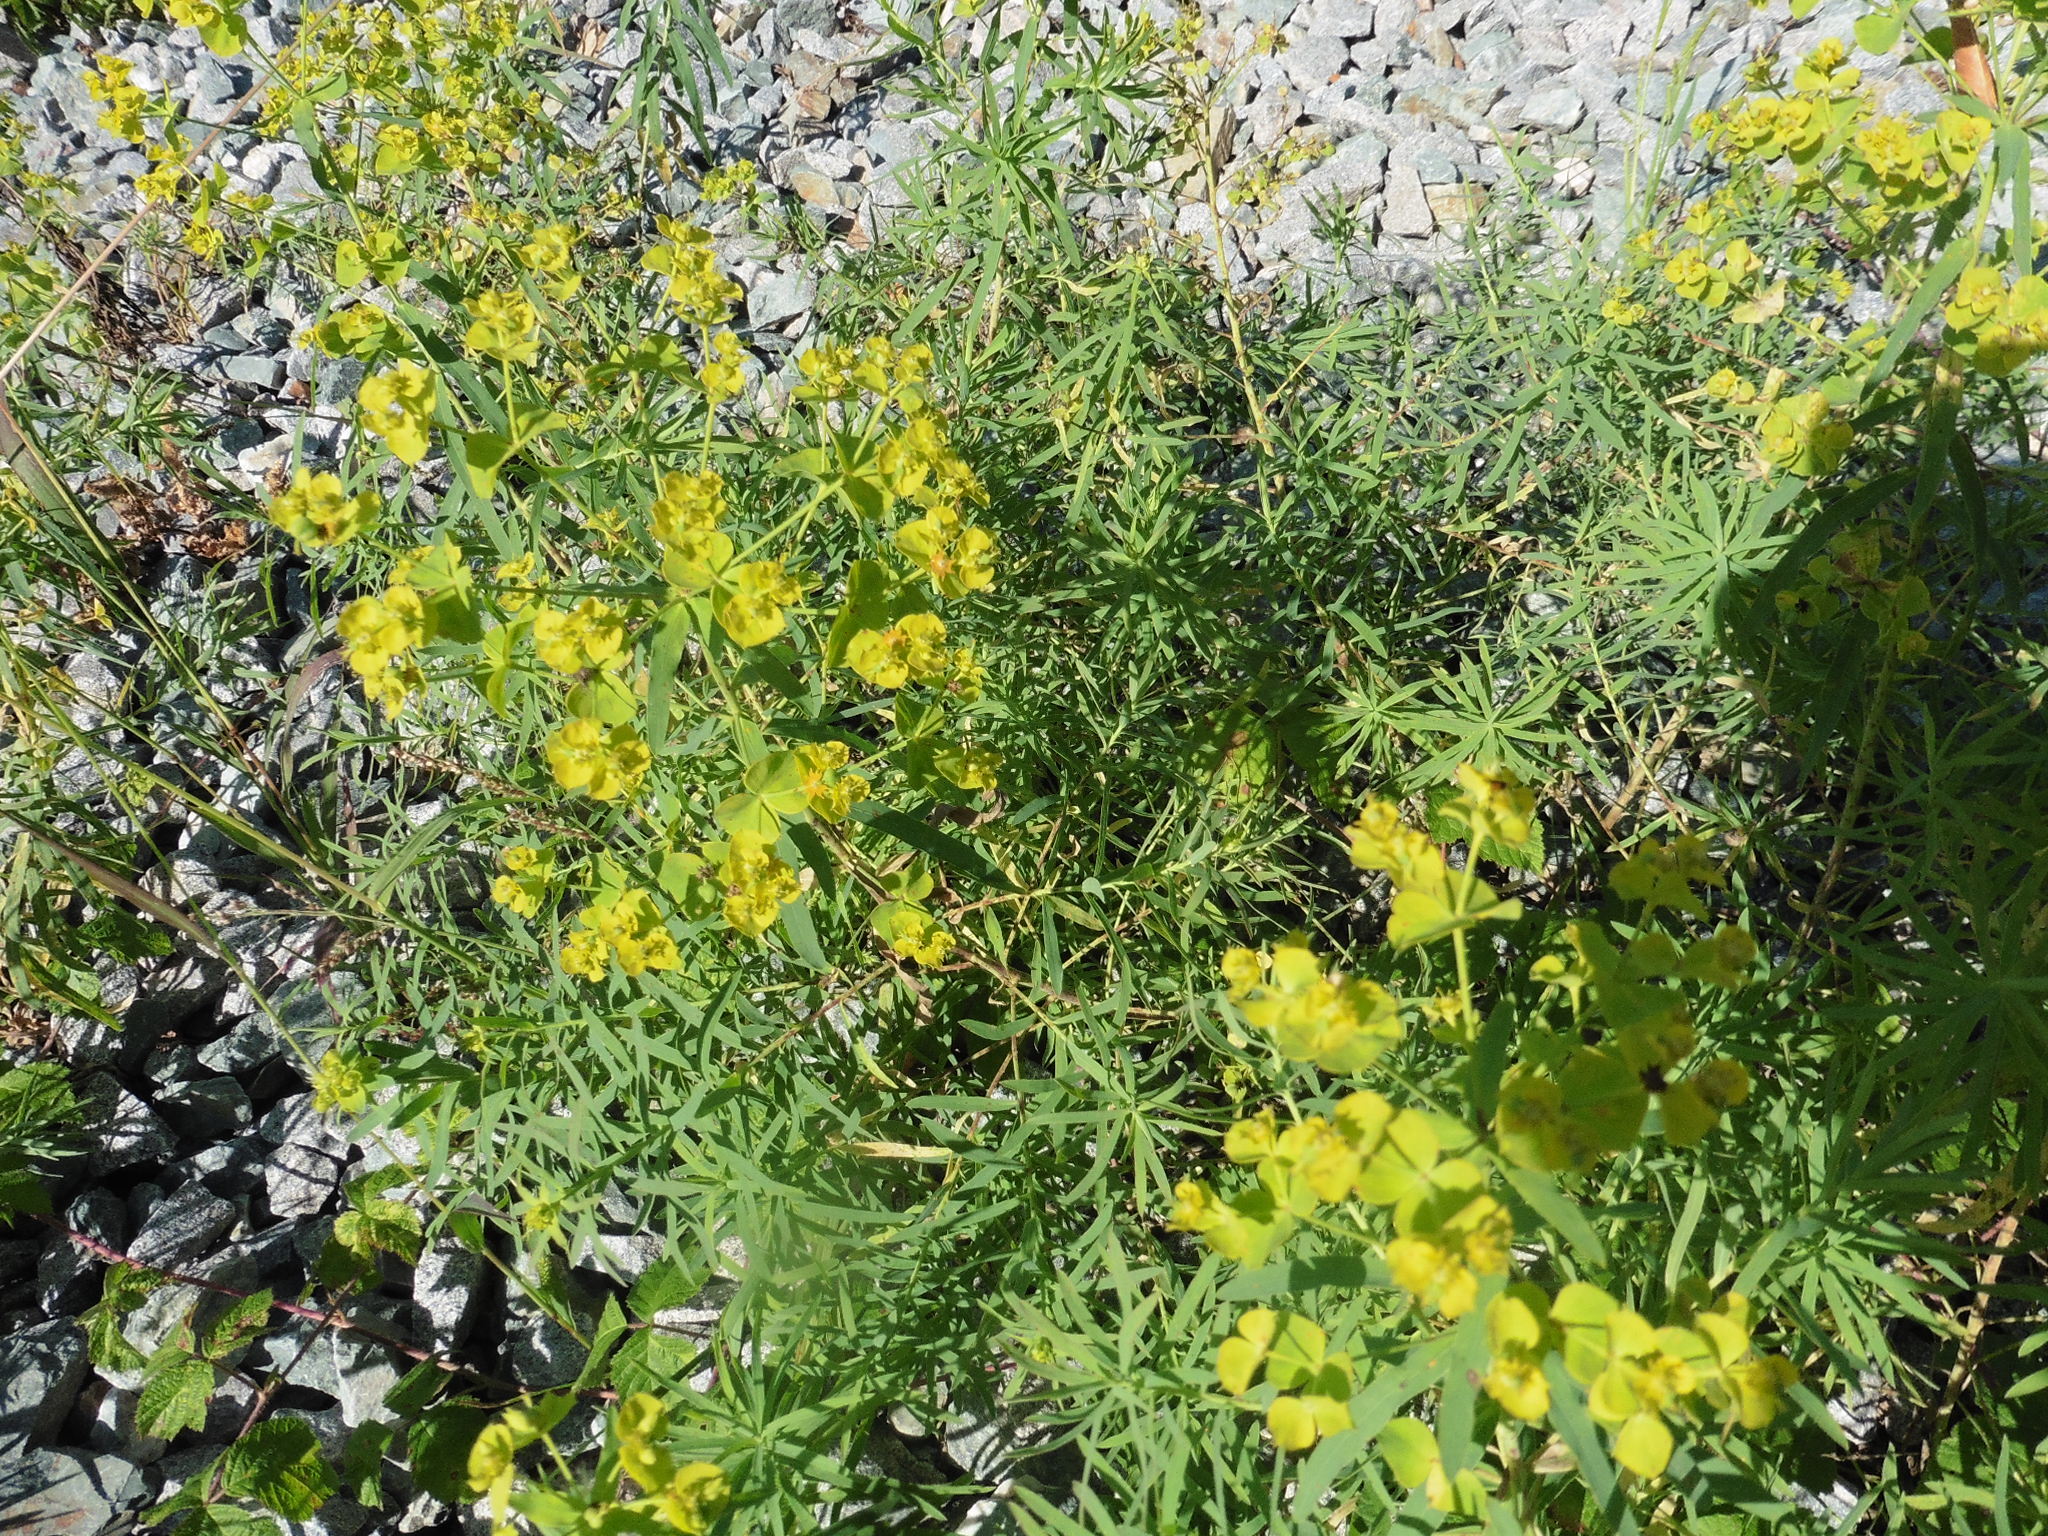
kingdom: Plantae
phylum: Tracheophyta
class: Magnoliopsida
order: Malpighiales
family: Euphorbiaceae
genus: Euphorbia
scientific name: Euphorbia virgata
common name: Leafy spurge
